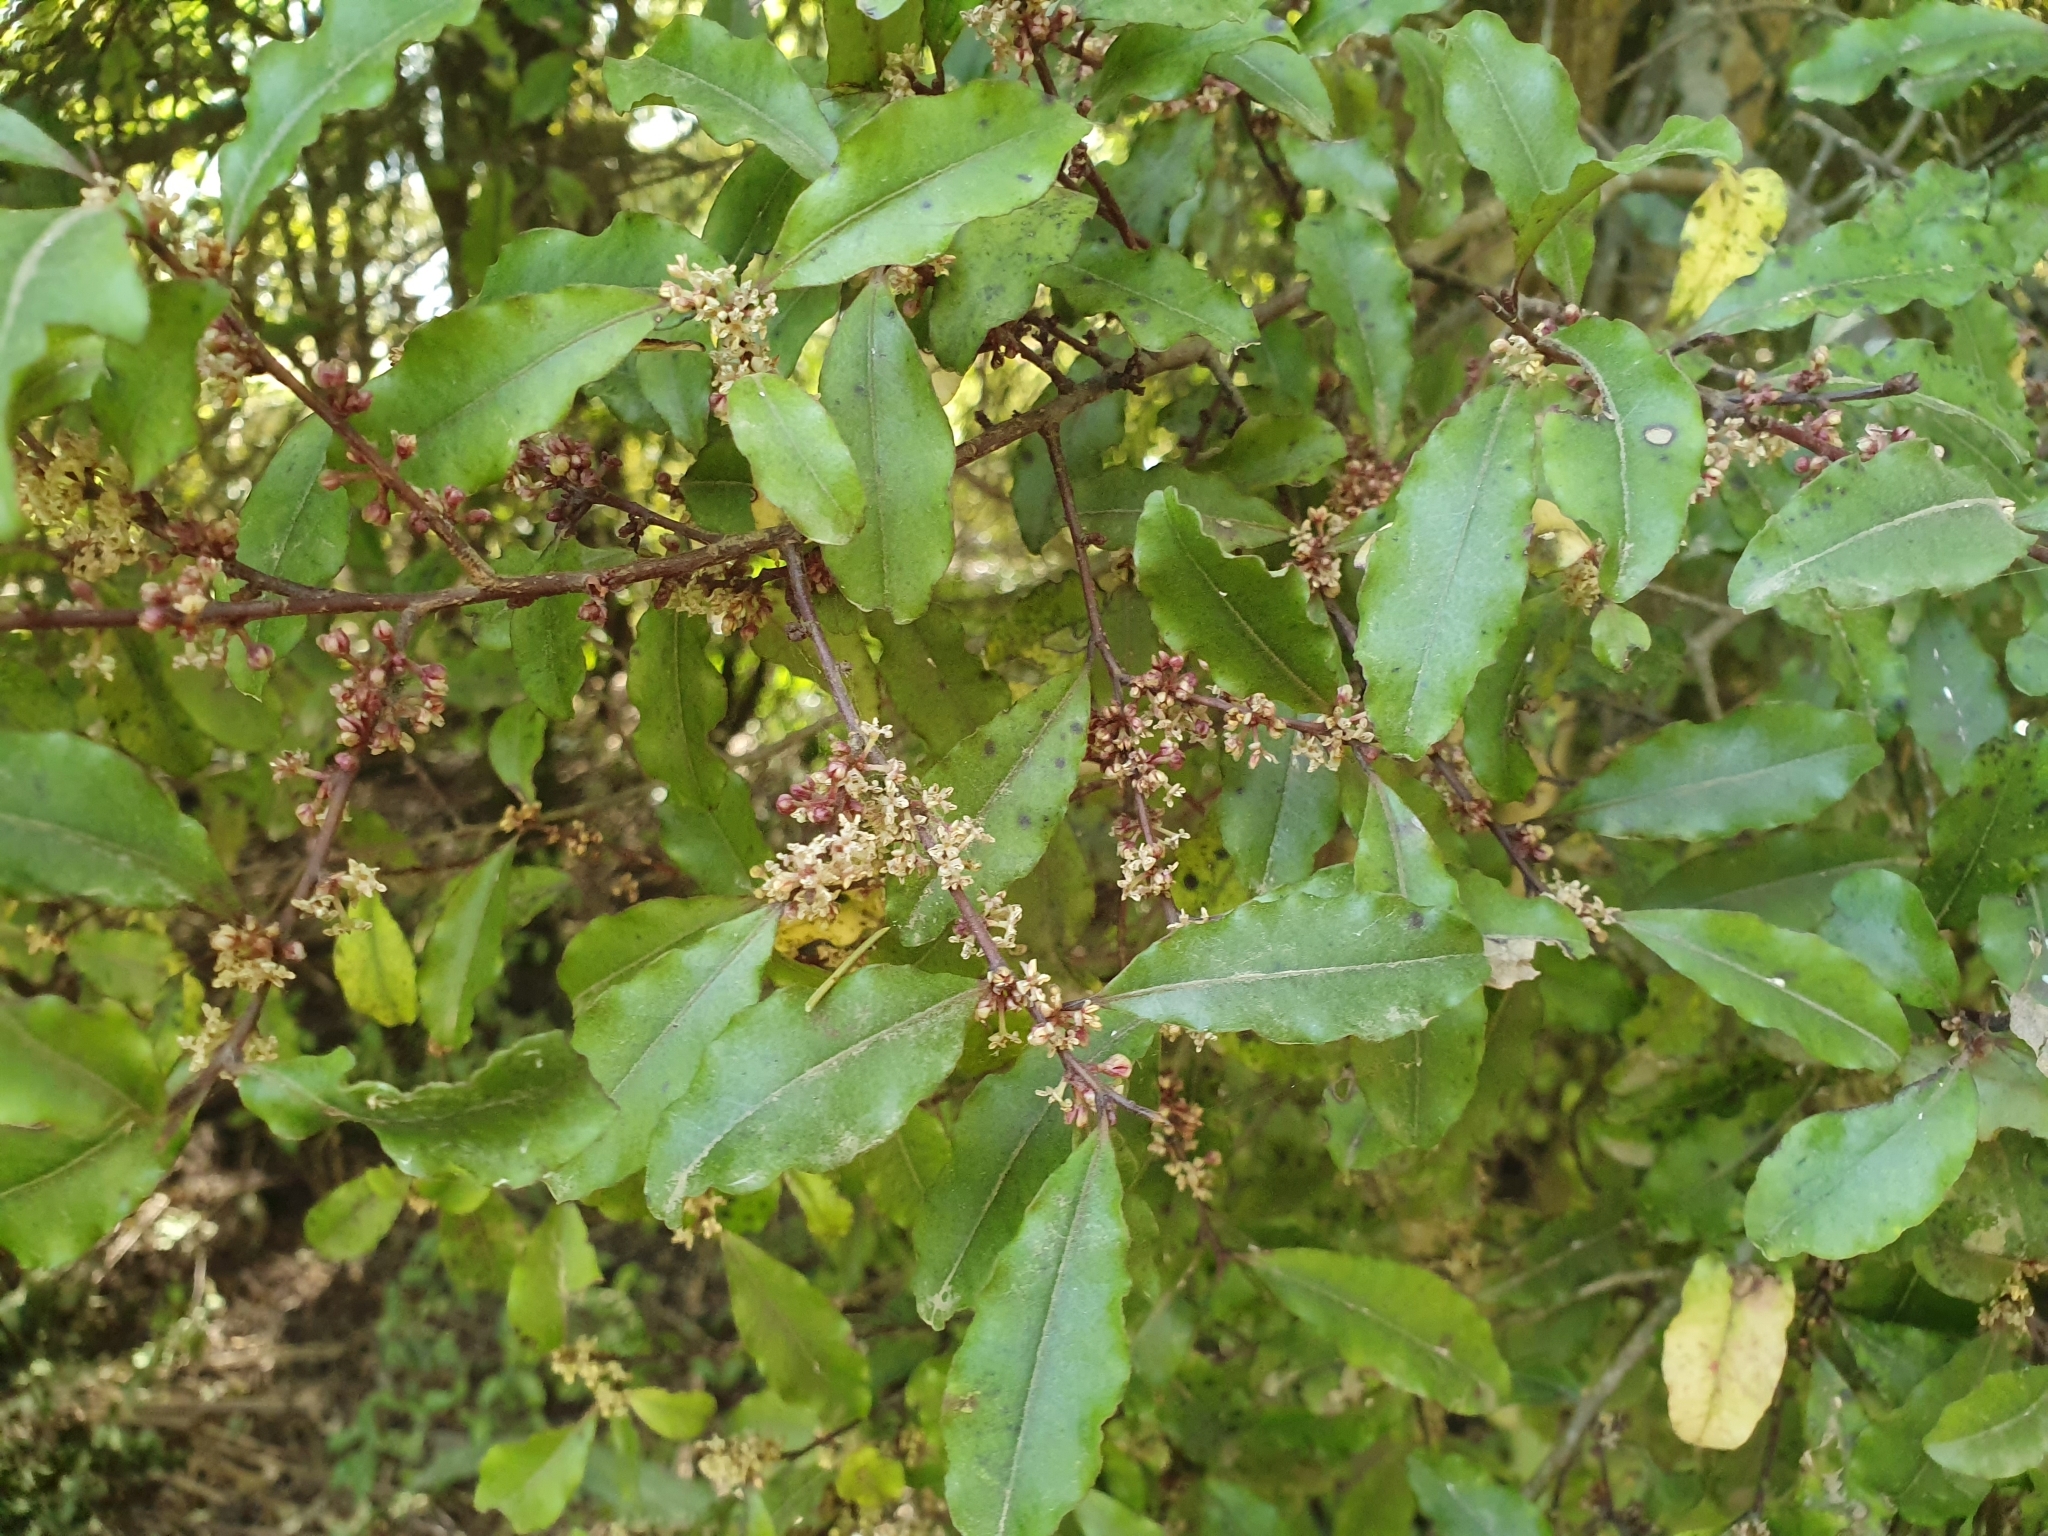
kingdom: Plantae
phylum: Tracheophyta
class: Magnoliopsida
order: Ericales
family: Primulaceae
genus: Myrsine
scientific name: Myrsine australis
